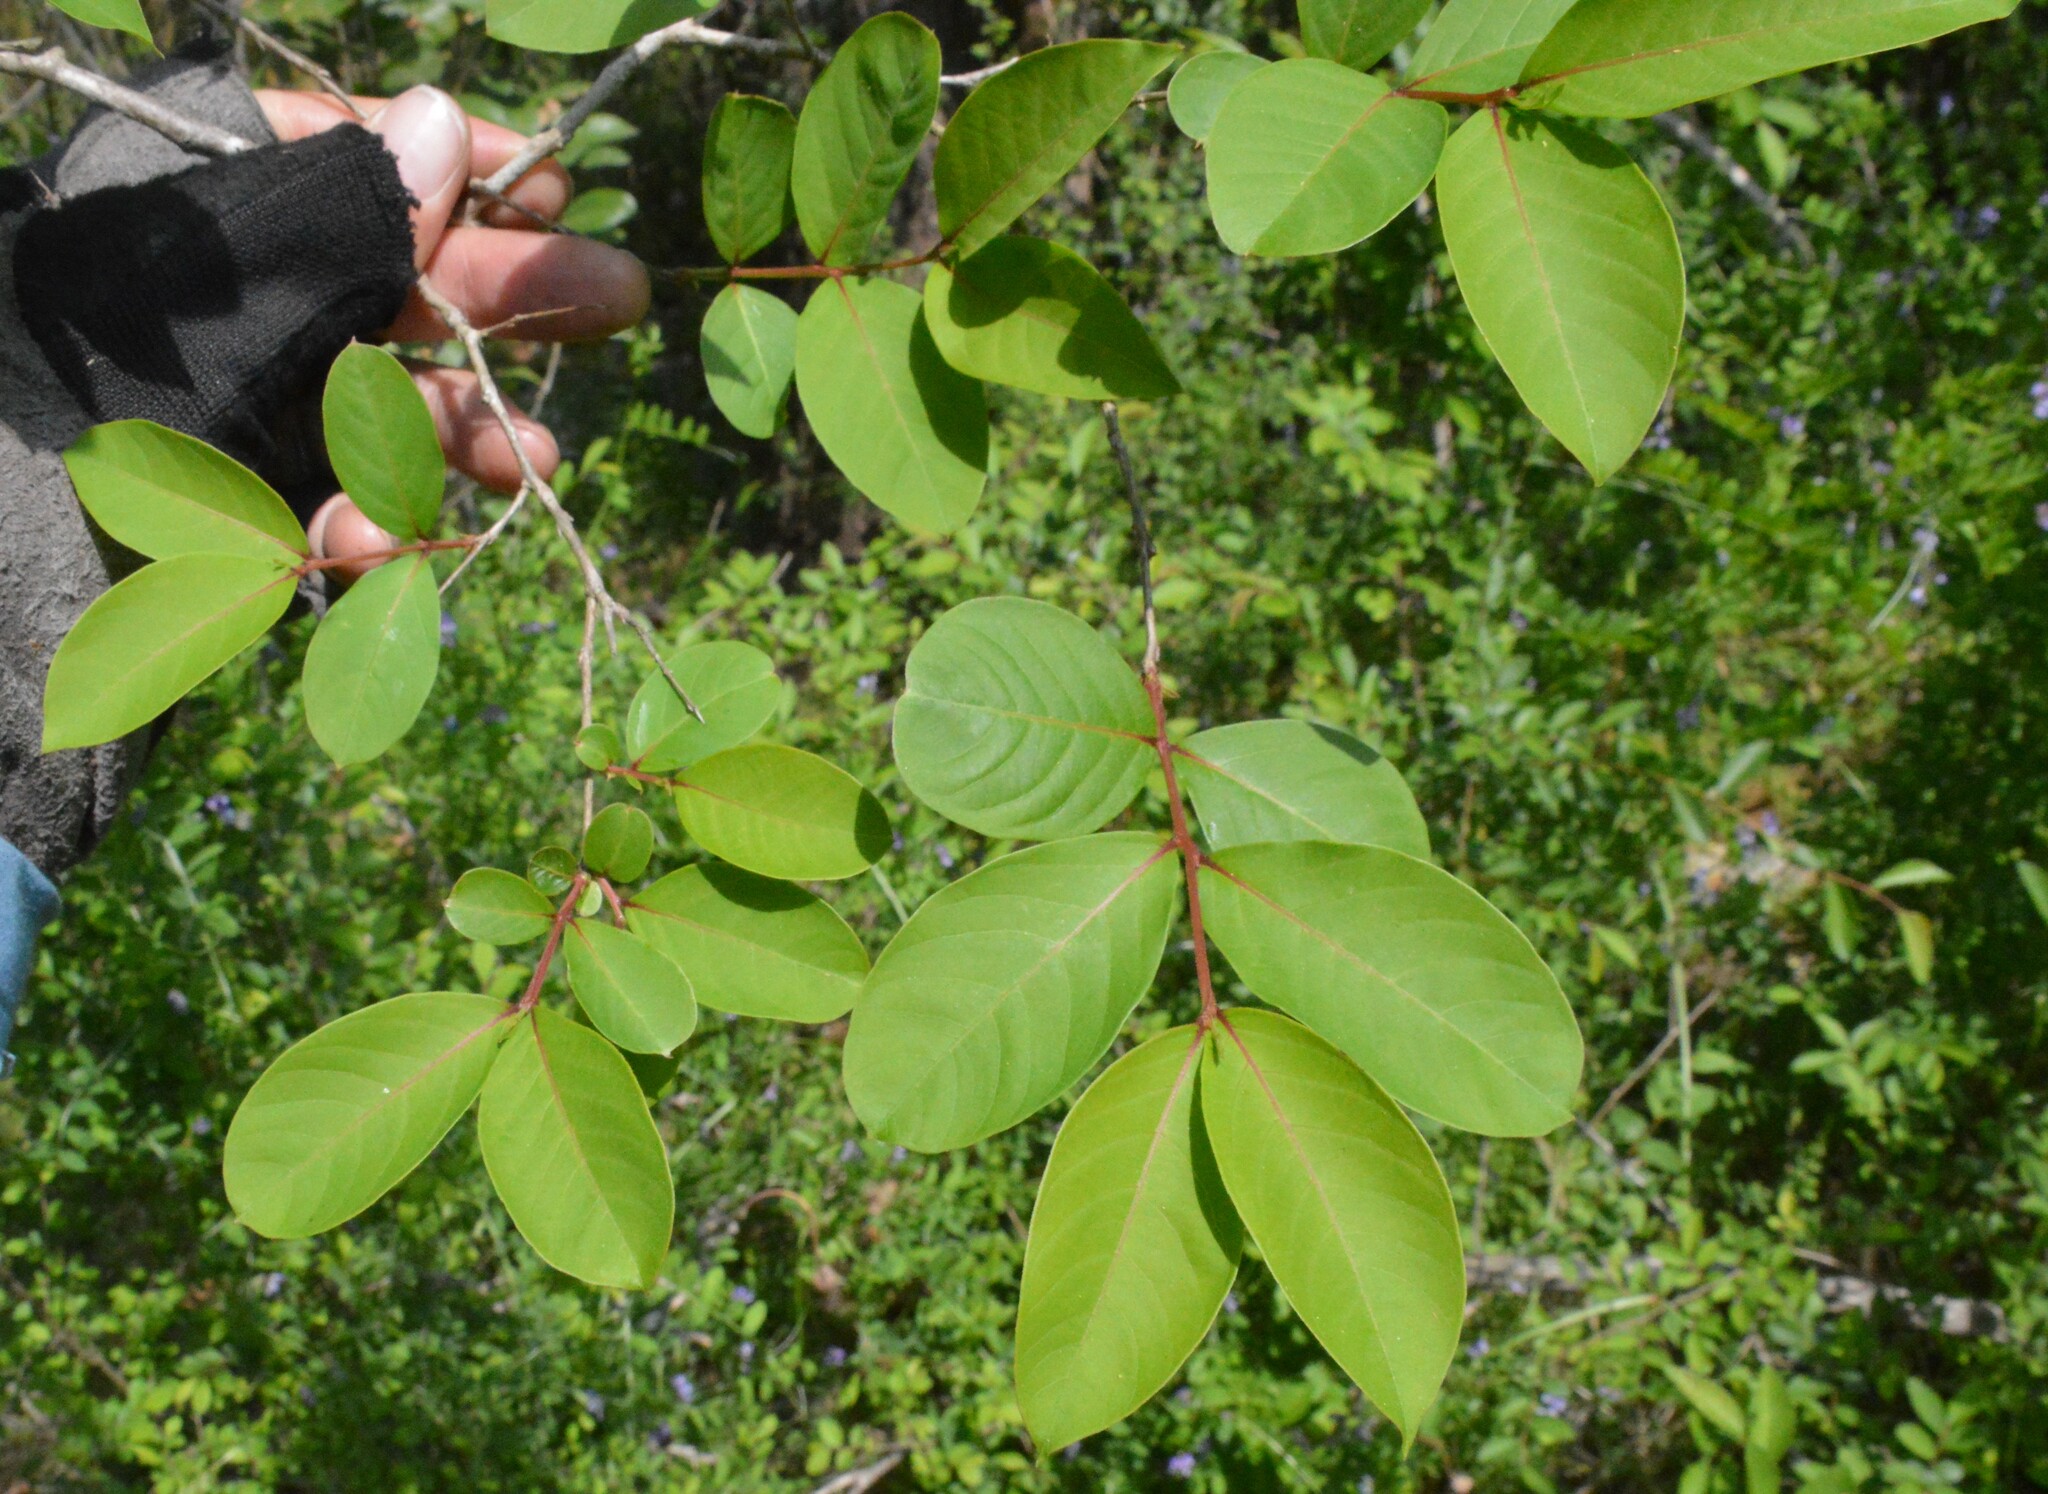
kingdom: Plantae
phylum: Tracheophyta
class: Magnoliopsida
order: Myrtales
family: Lythraceae
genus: Lagerstroemia
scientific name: Lagerstroemia indica
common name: Crape-myrtle
